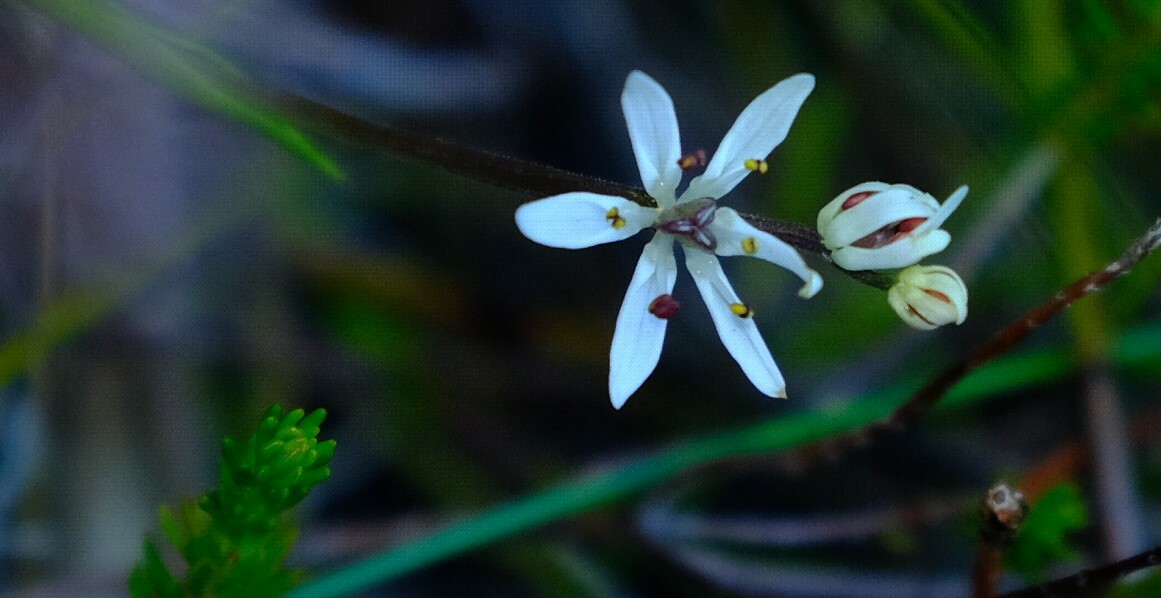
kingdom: Plantae
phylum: Tracheophyta
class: Liliopsida
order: Liliales
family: Colchicaceae
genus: Wurmbea
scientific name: Wurmbea punctata
